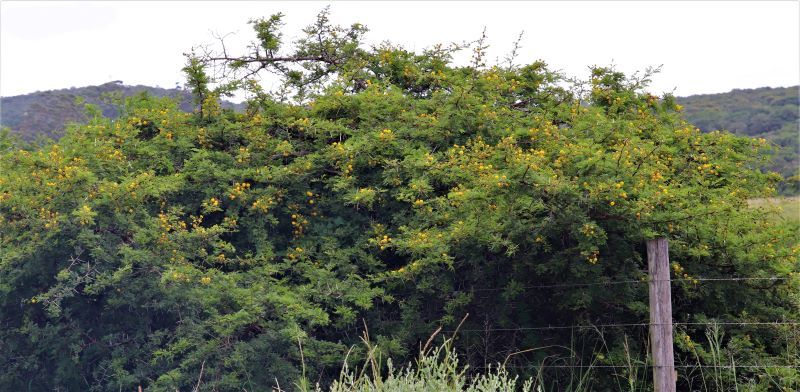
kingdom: Plantae
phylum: Tracheophyta
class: Magnoliopsida
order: Fabales
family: Fabaceae
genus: Vachellia
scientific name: Vachellia karroo
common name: Sweet thorn
